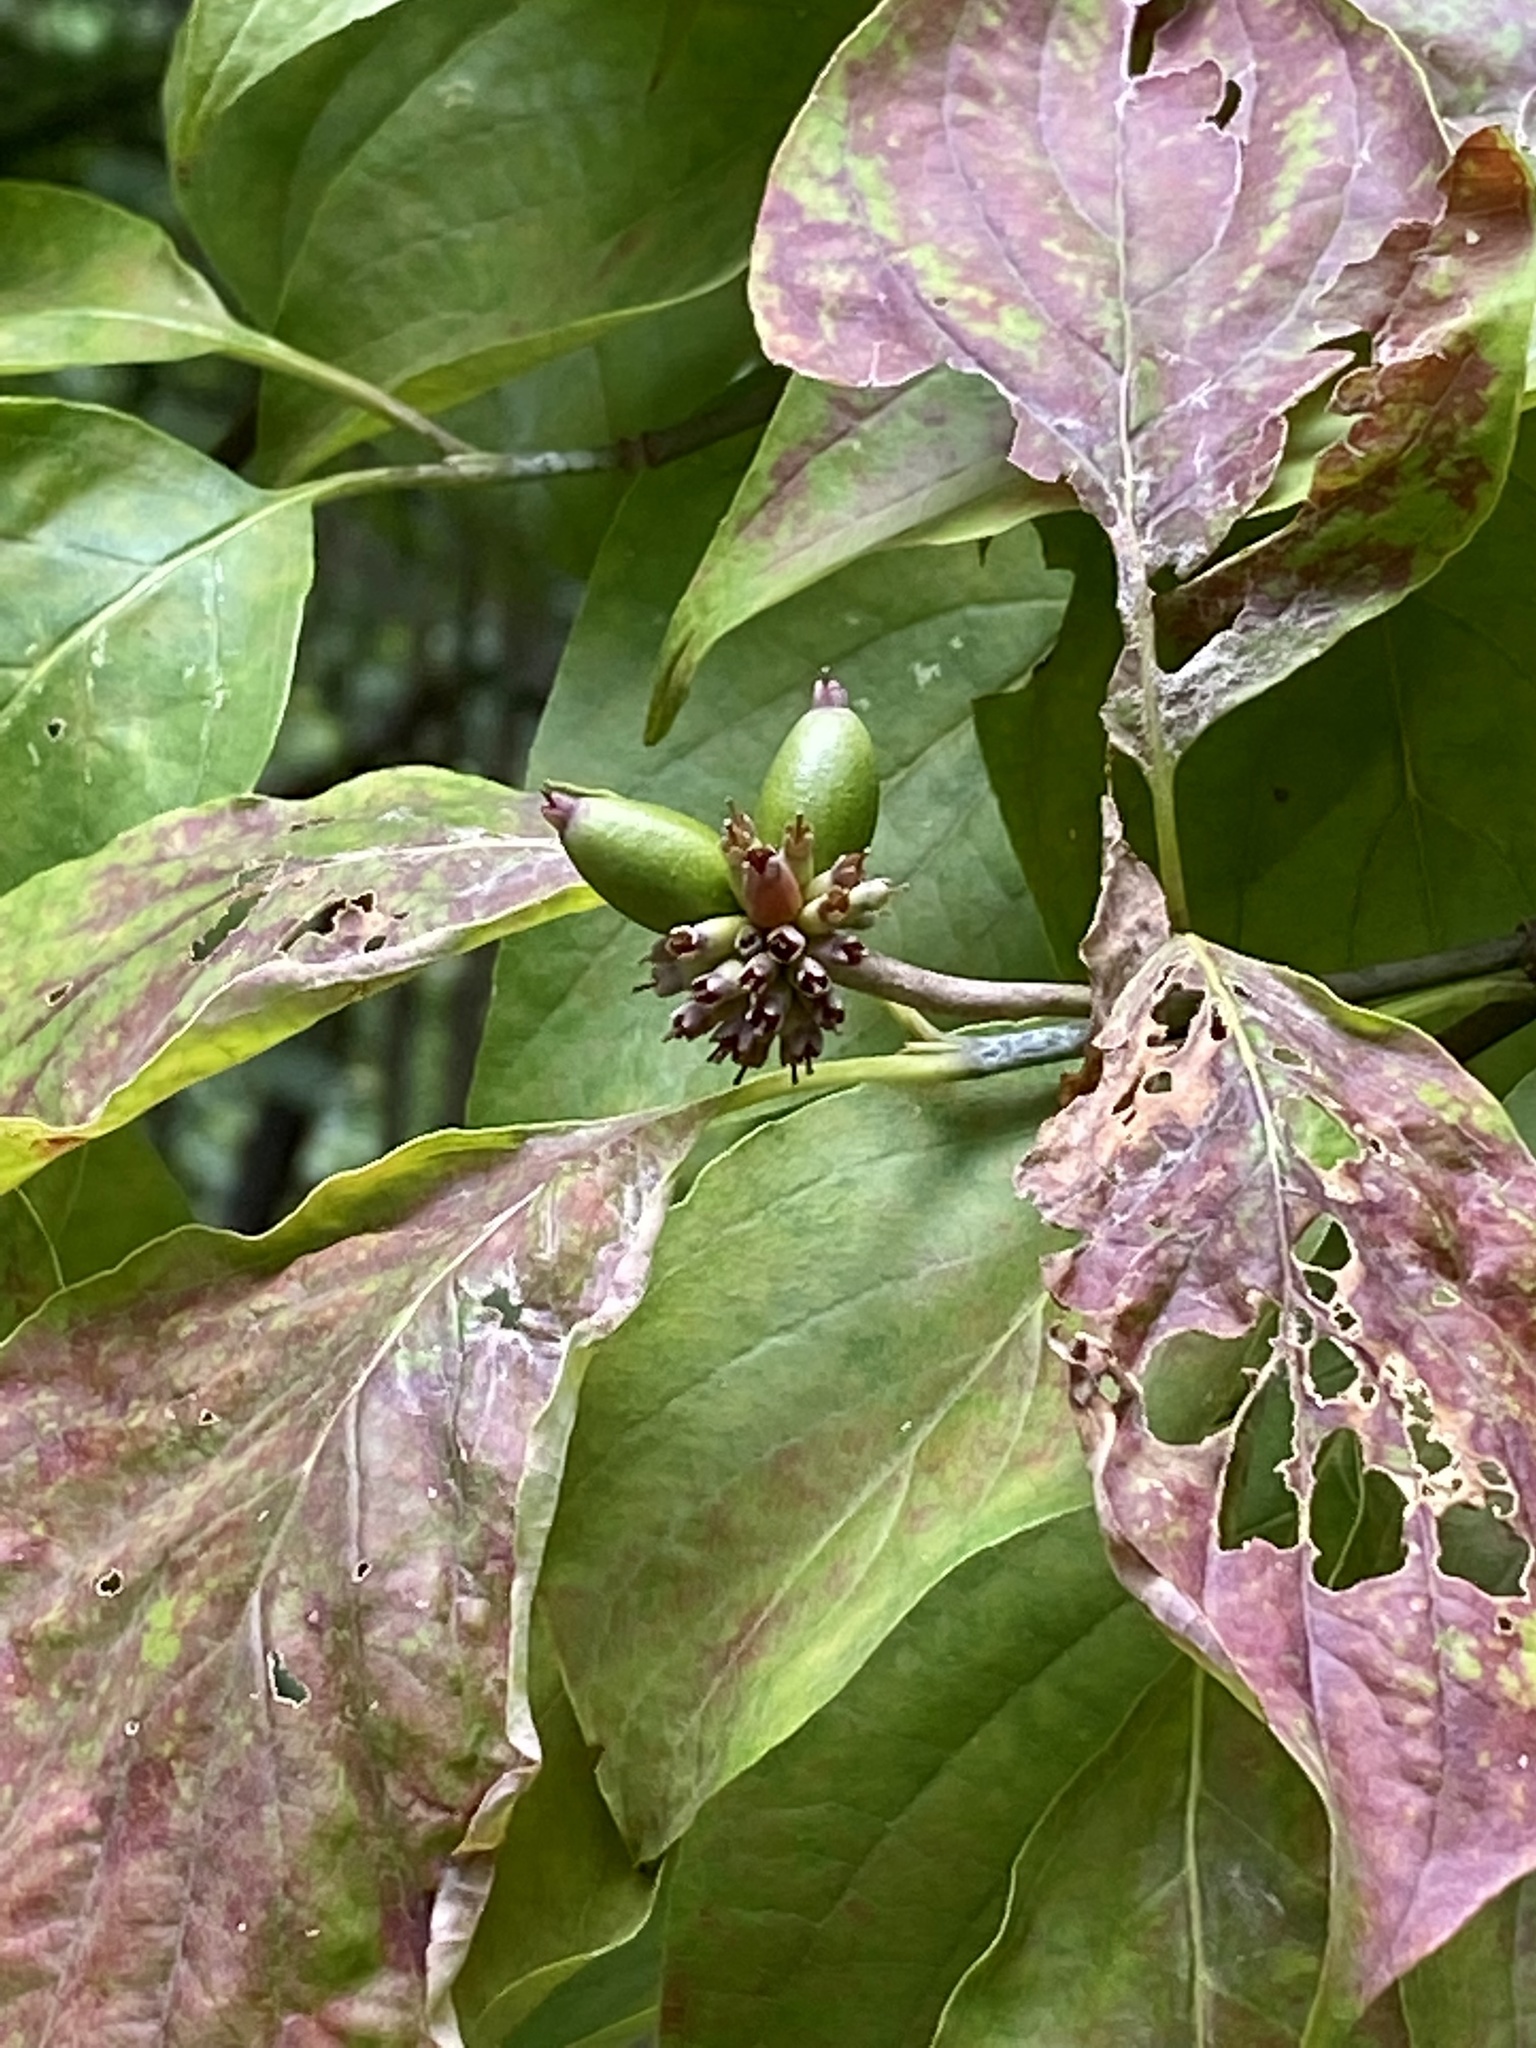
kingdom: Plantae
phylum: Tracheophyta
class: Magnoliopsida
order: Cornales
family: Cornaceae
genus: Cornus
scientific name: Cornus florida
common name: Flowering dogwood
